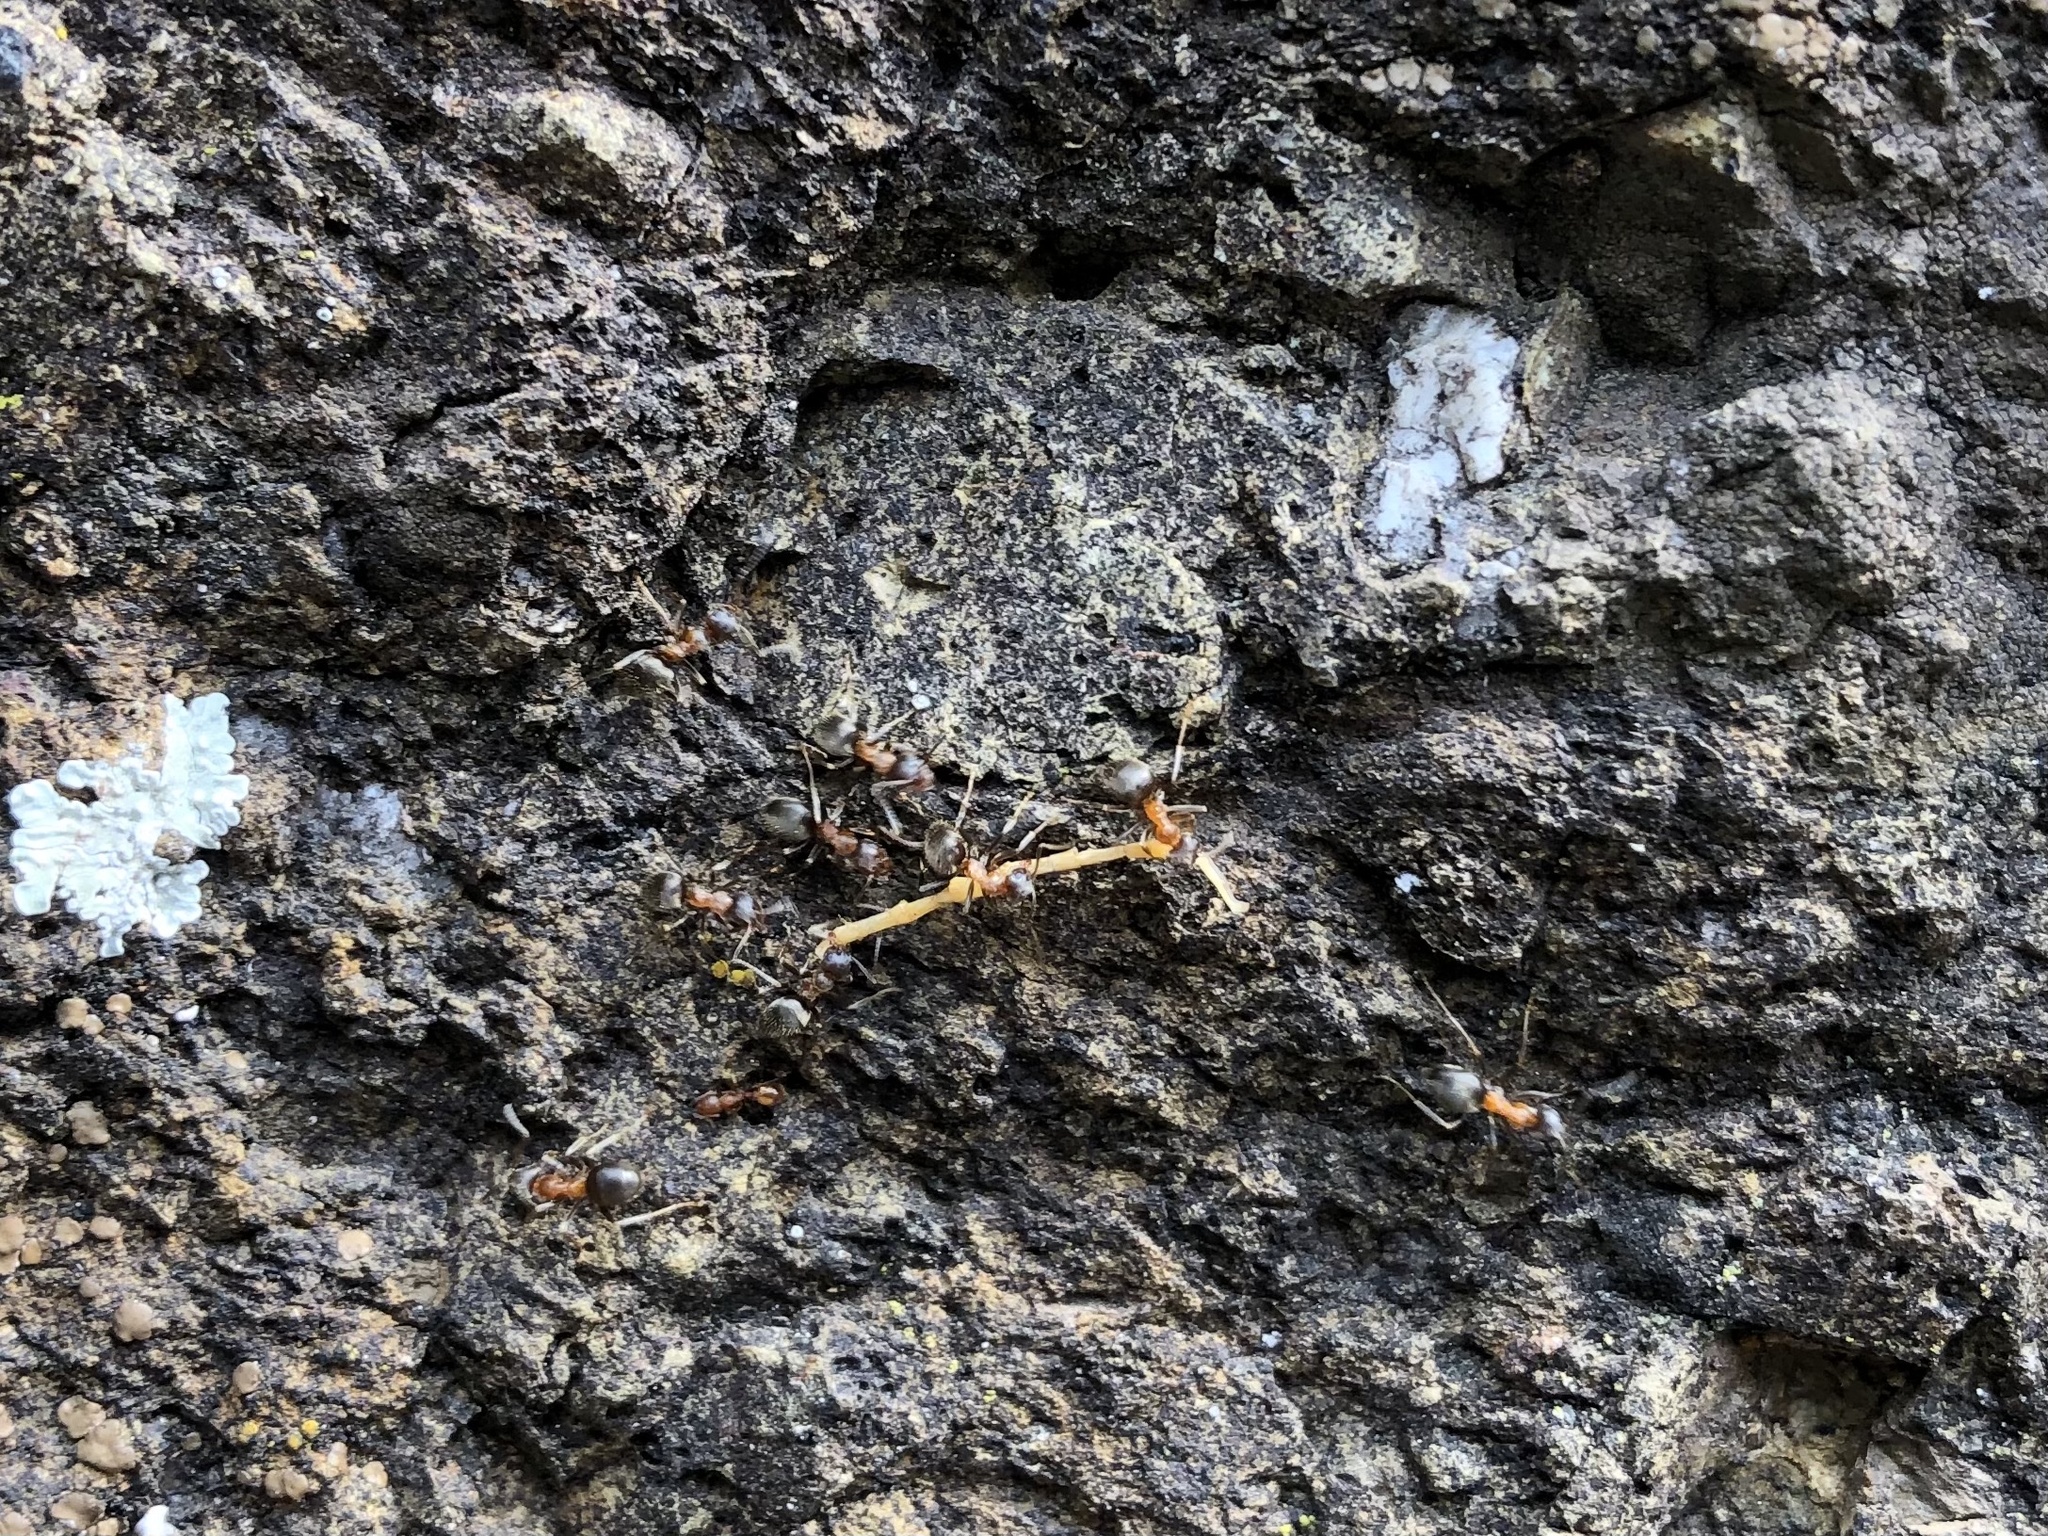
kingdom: Animalia
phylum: Arthropoda
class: Insecta
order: Hymenoptera
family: Formicidae
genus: Lasius
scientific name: Lasius emarginatus
